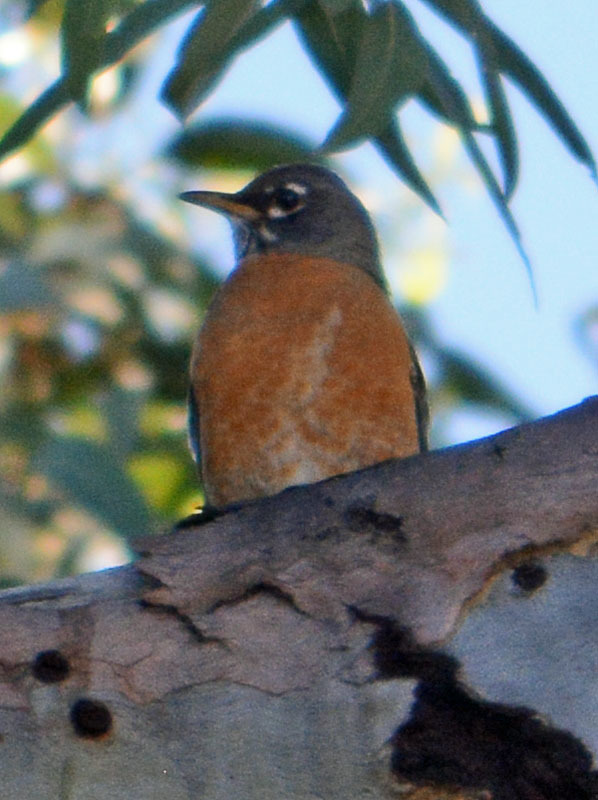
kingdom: Animalia
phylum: Chordata
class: Aves
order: Passeriformes
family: Turdidae
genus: Turdus
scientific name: Turdus migratorius
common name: American robin
